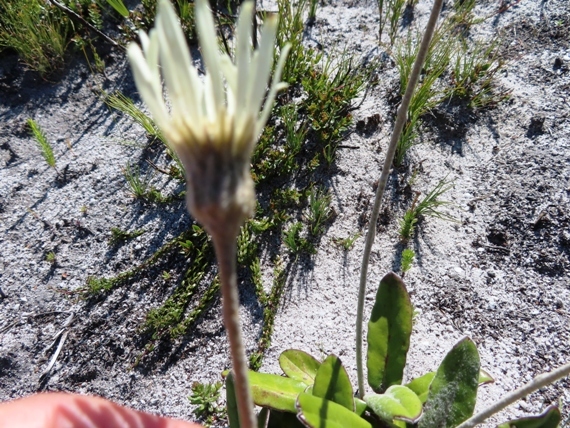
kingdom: Plantae
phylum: Tracheophyta
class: Magnoliopsida
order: Asterales
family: Asteraceae
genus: Gerbera
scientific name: Gerbera tomentosa
